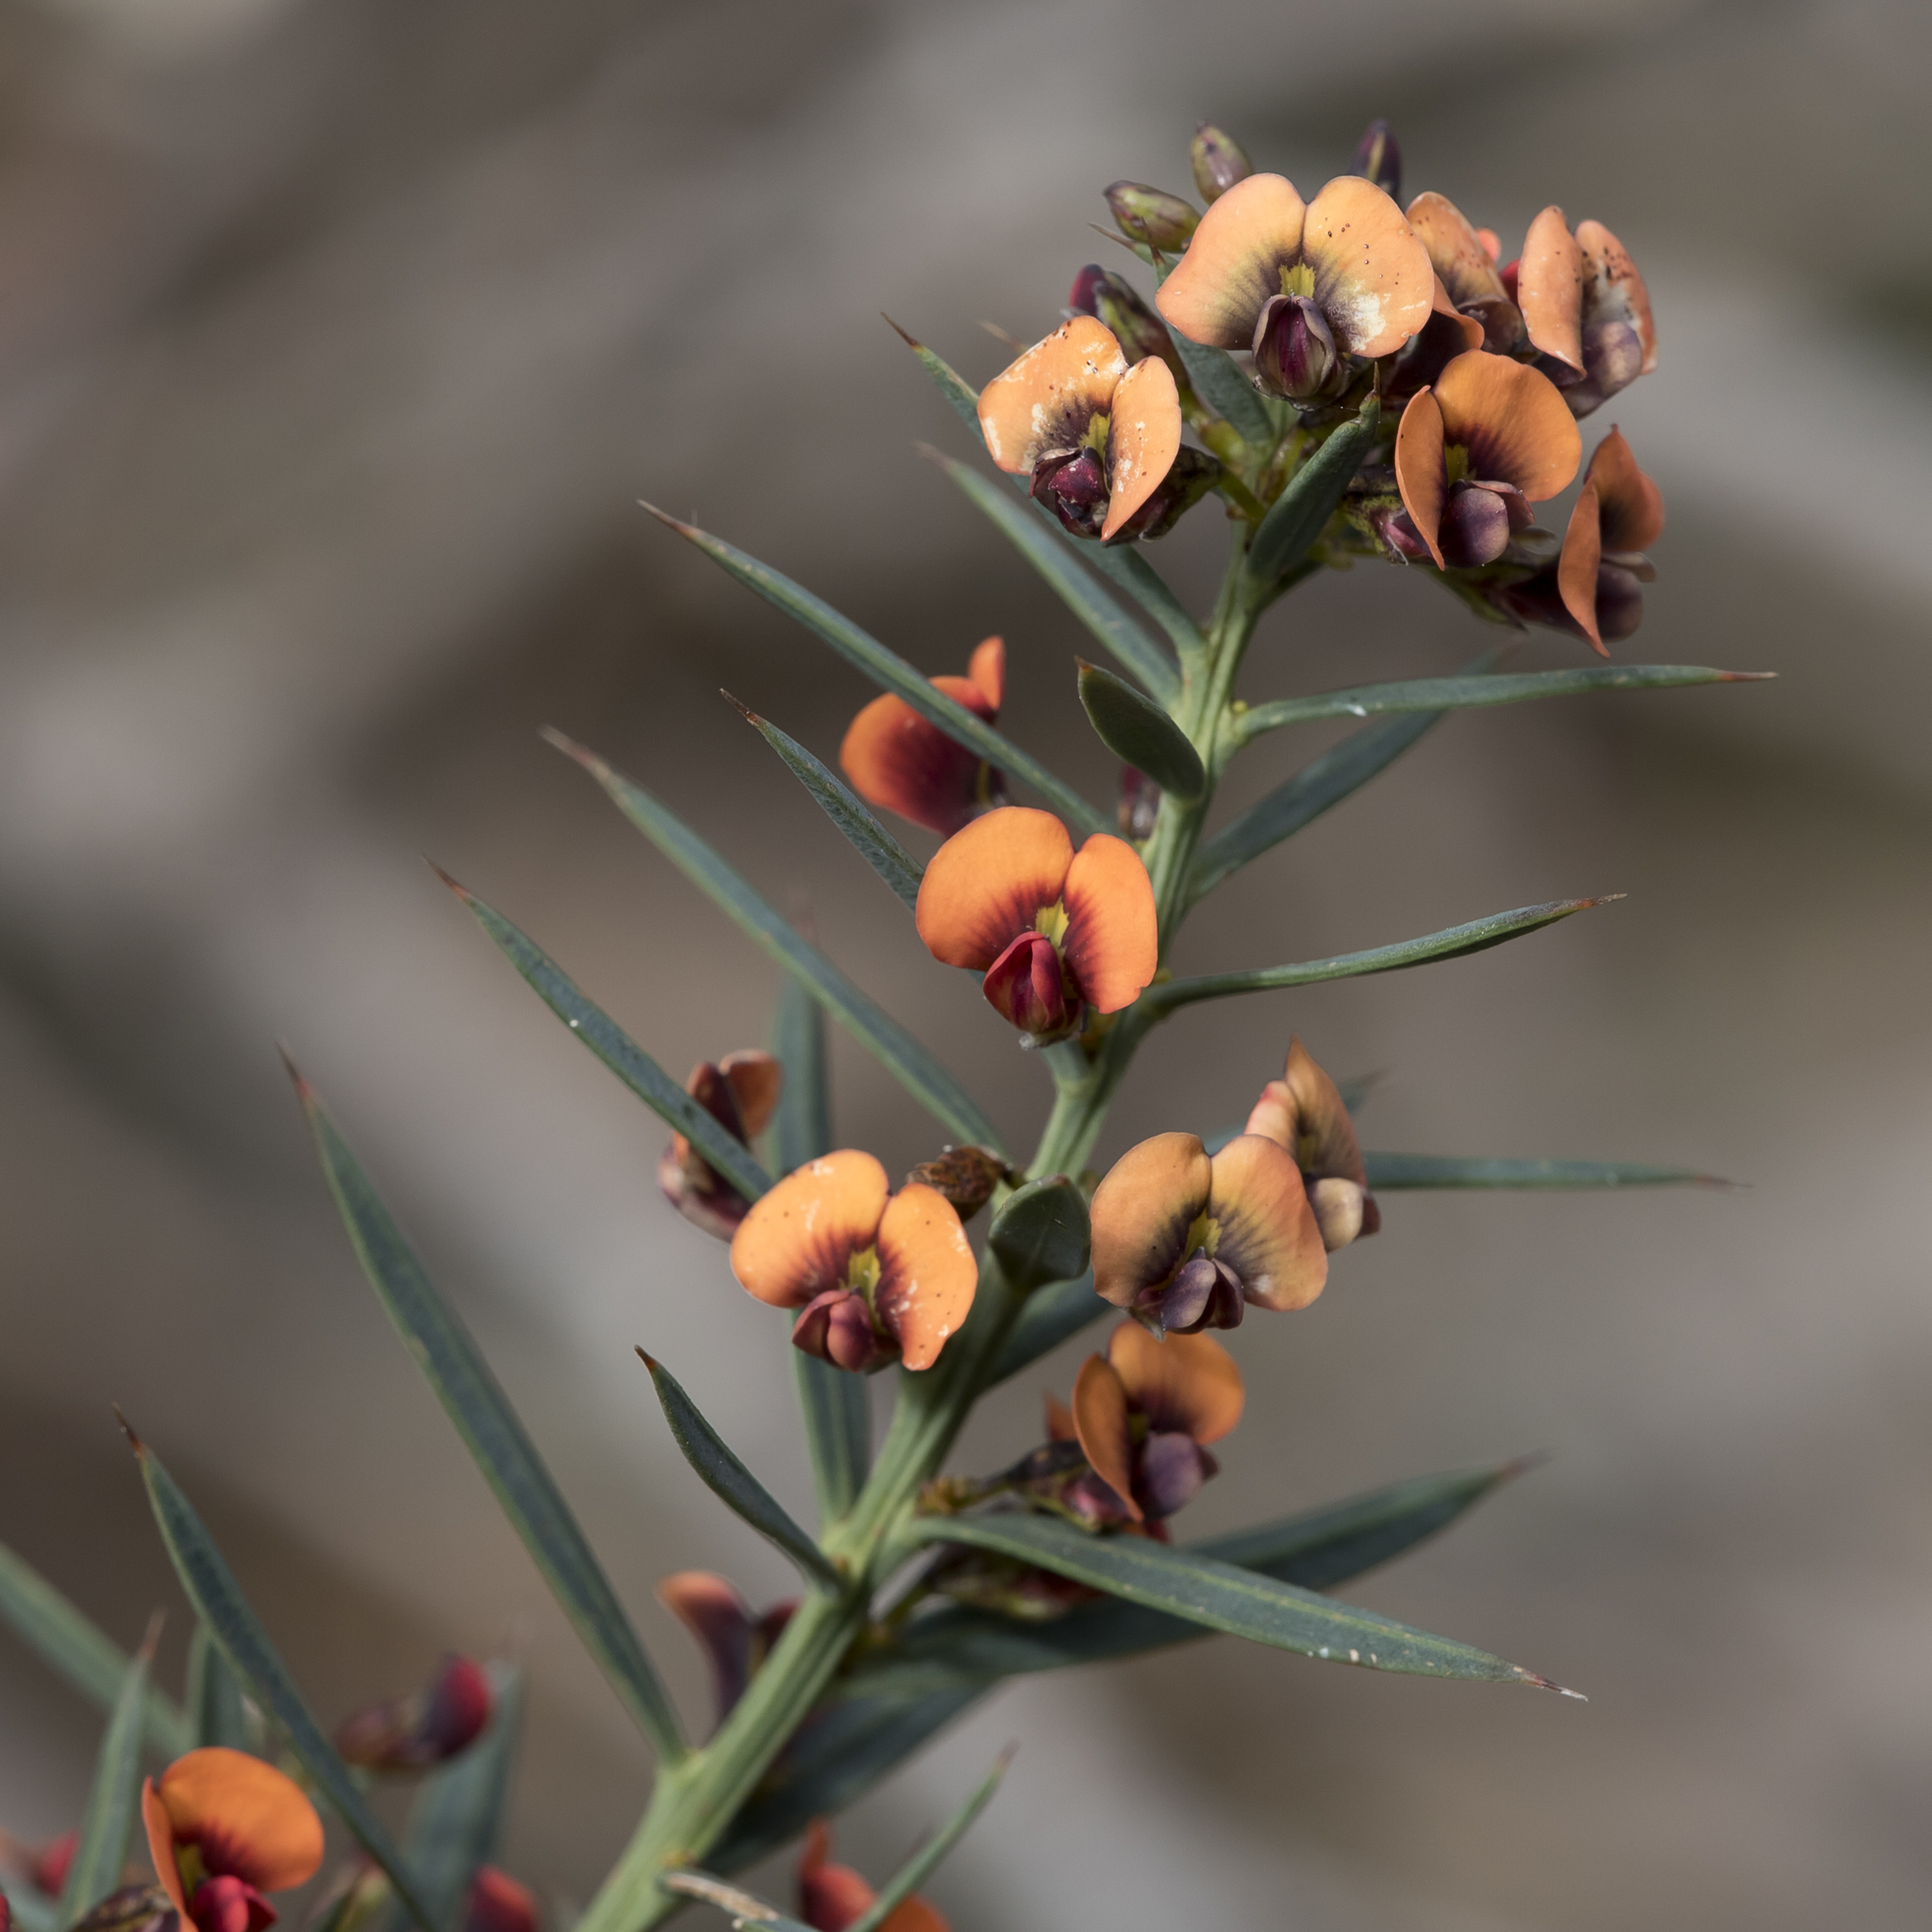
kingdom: Plantae
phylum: Tracheophyta
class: Magnoliopsida
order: Fabales
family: Fabaceae
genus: Daviesia
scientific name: Daviesia ulicifolia
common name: Gorse bitter-pea
